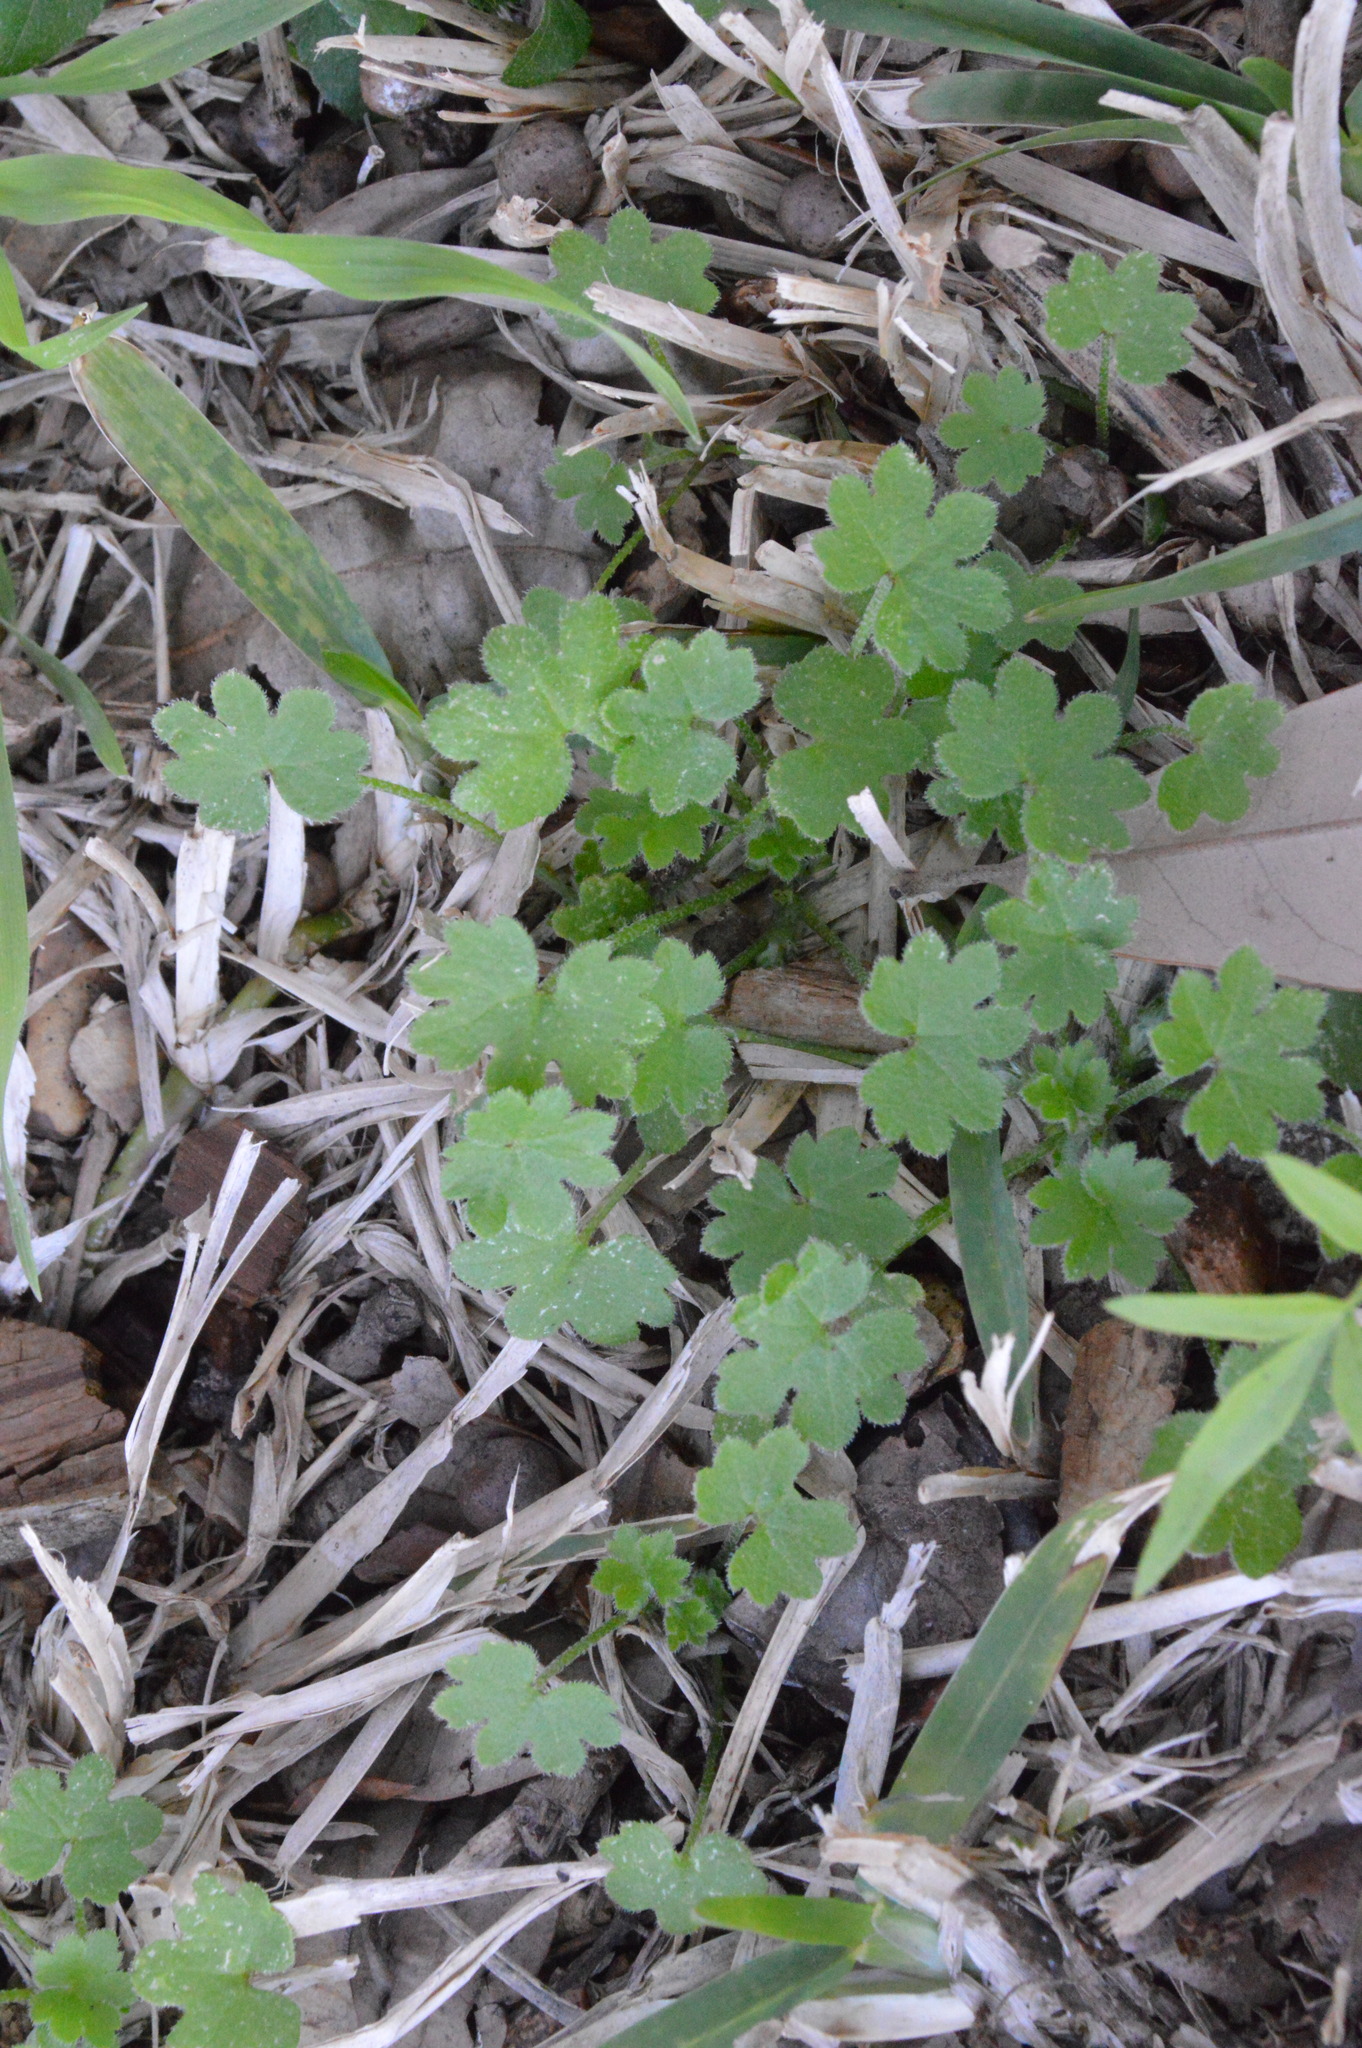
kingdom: Plantae
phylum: Tracheophyta
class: Magnoliopsida
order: Apiales
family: Apiaceae
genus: Bowlesia
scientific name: Bowlesia incana
